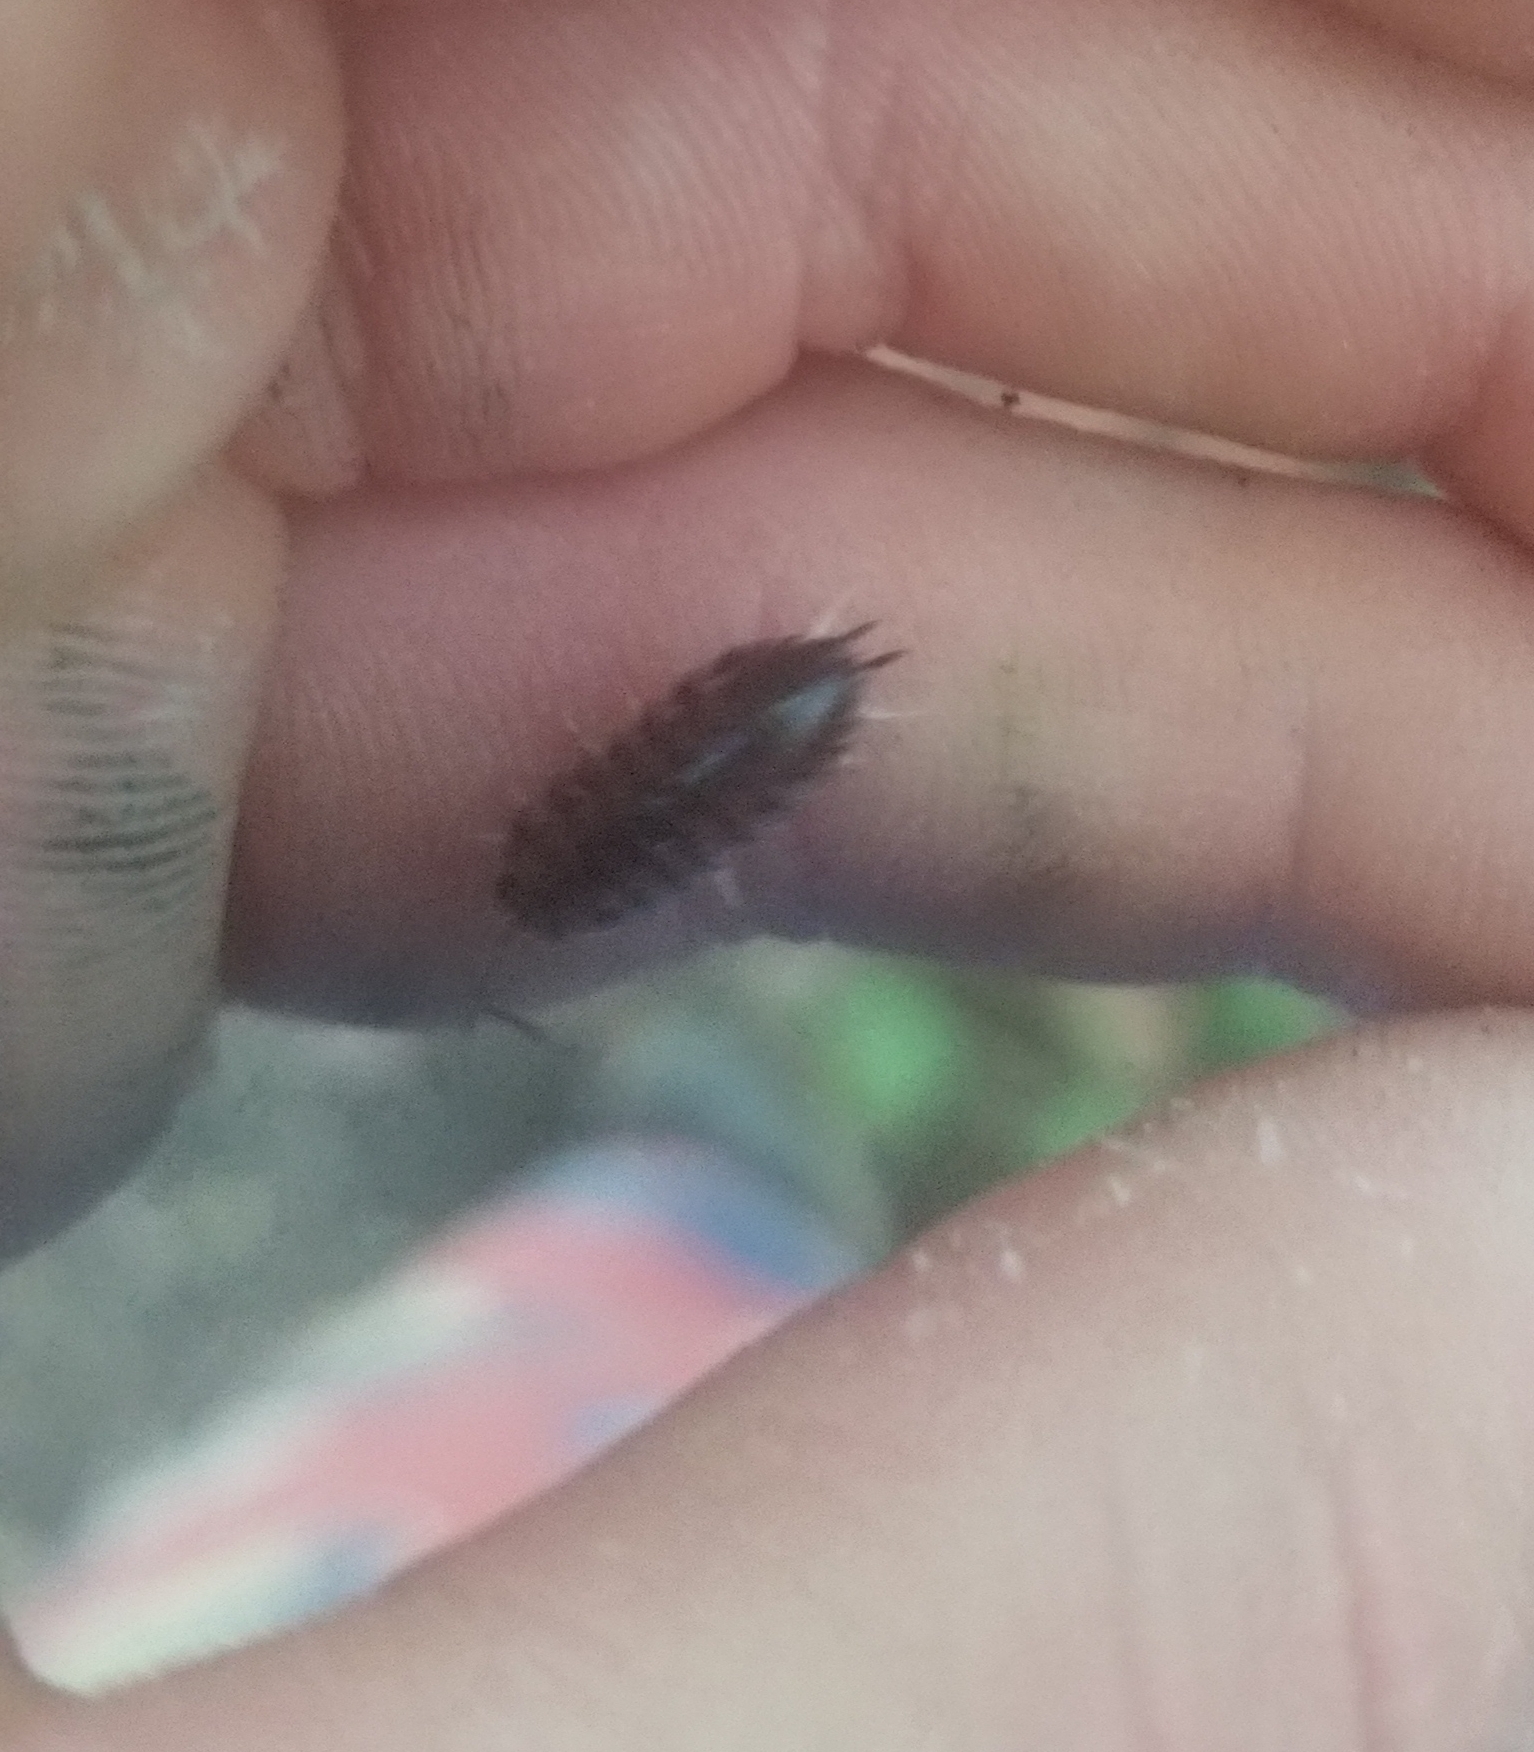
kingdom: Animalia
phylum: Arthropoda
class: Malacostraca
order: Isopoda
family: Cylisticidae
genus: Cylisticus
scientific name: Cylisticus convexus
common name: Curly woodlouse
